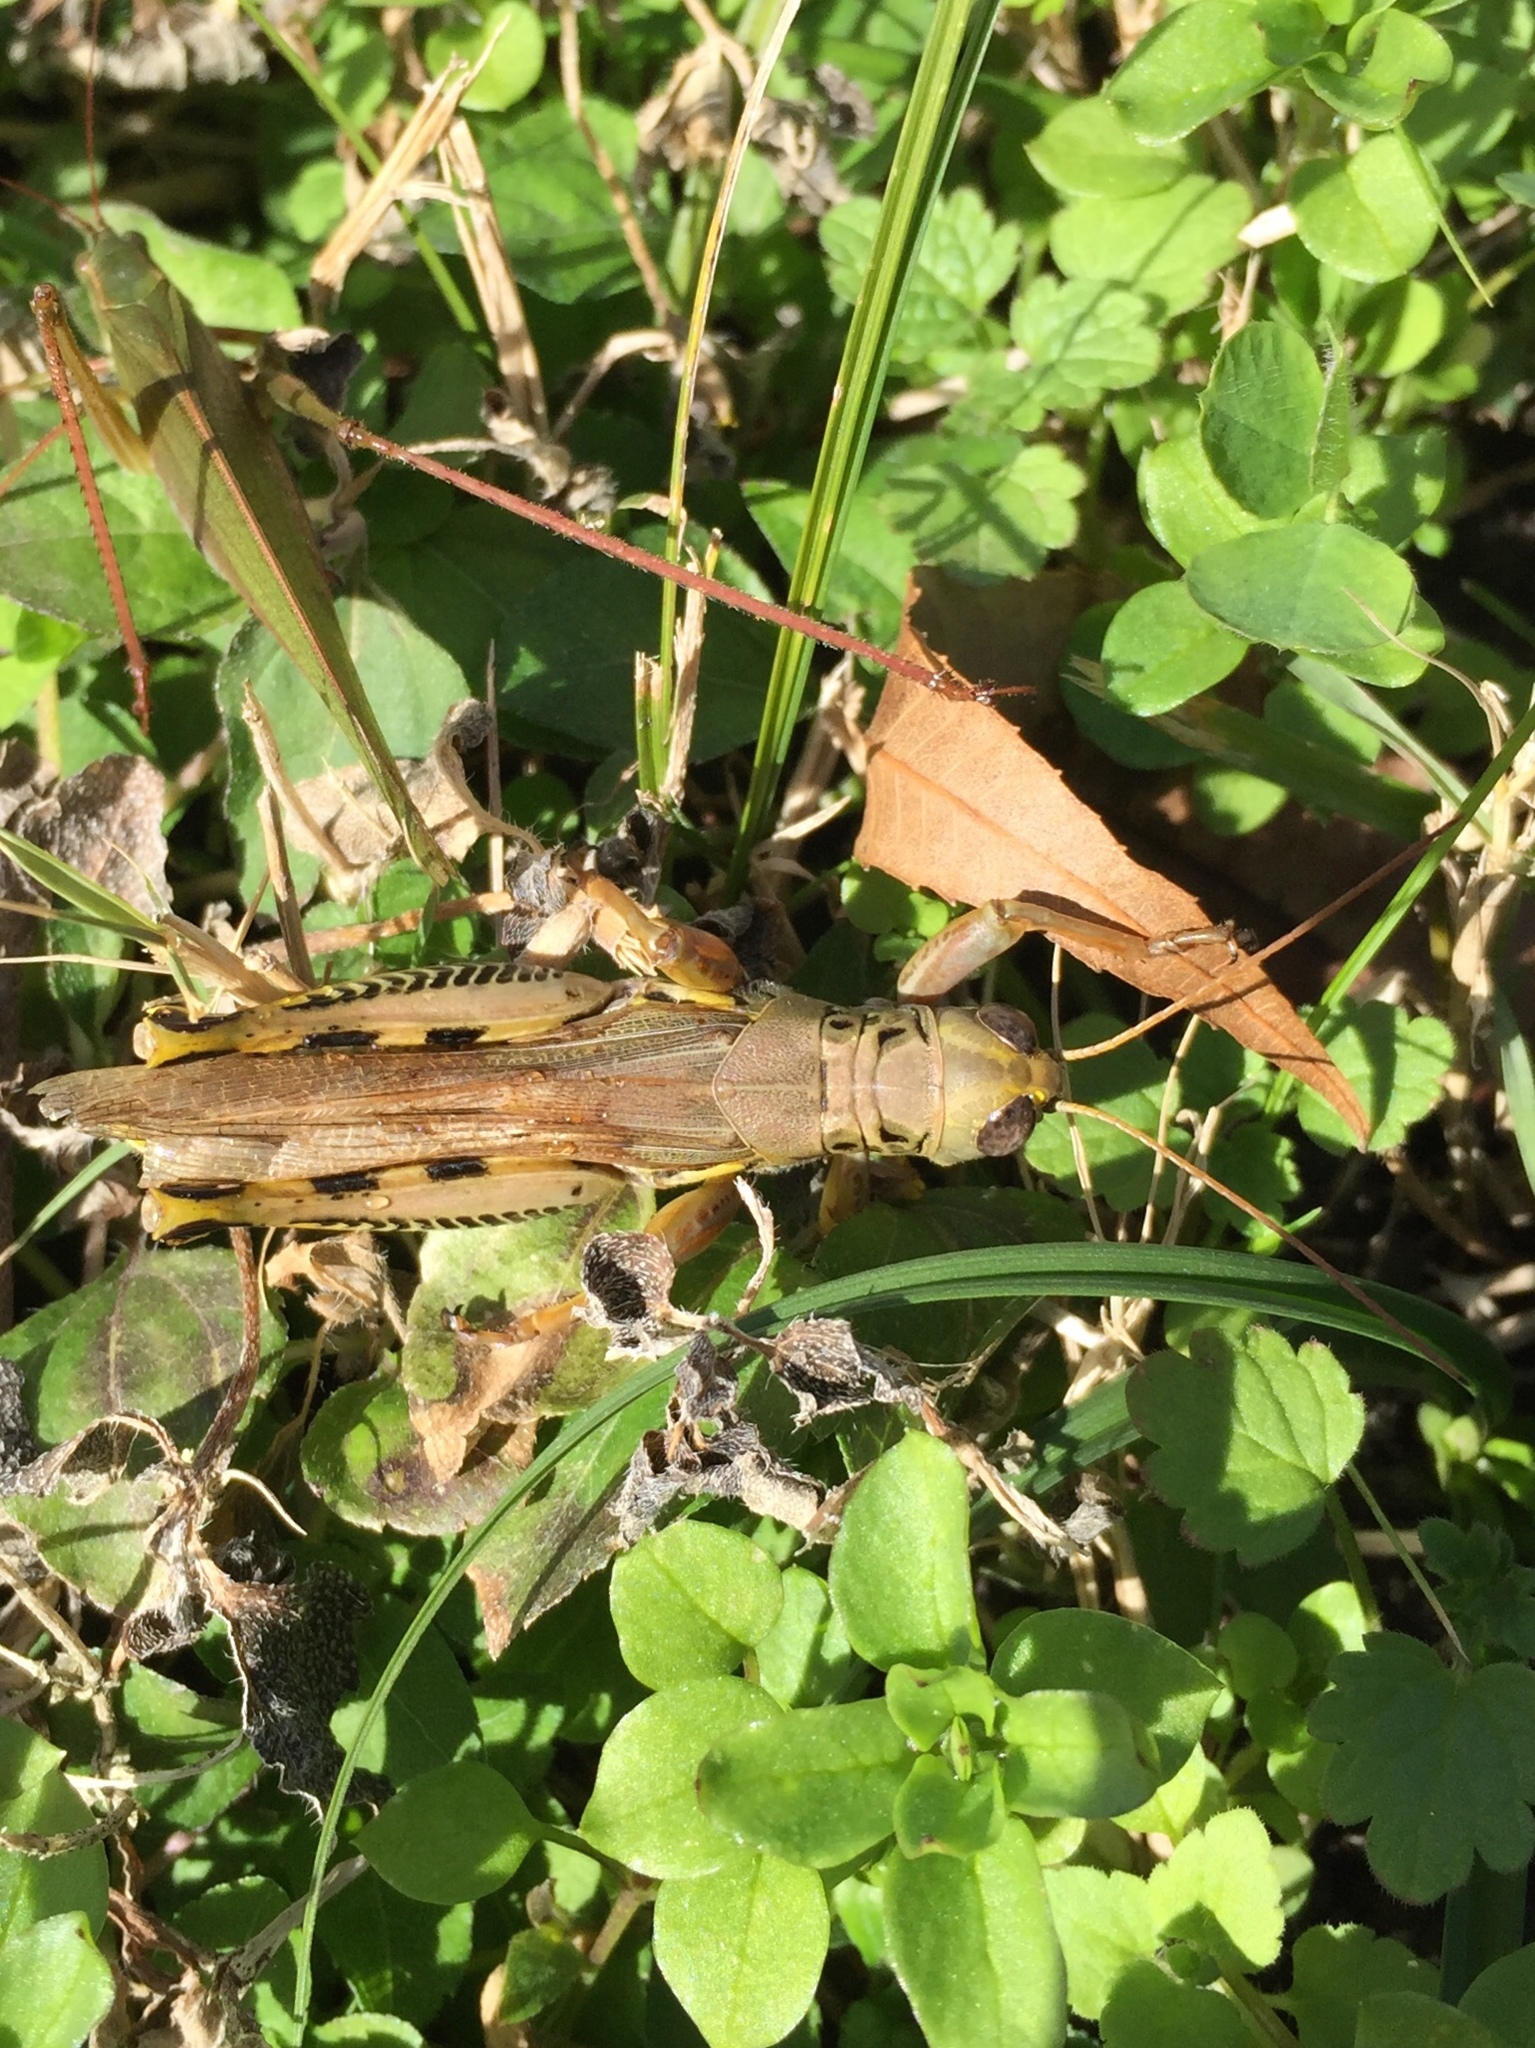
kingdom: Animalia
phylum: Arthropoda
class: Insecta
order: Orthoptera
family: Acrididae
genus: Melanoplus
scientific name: Melanoplus differentialis
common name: Differential grasshopper
